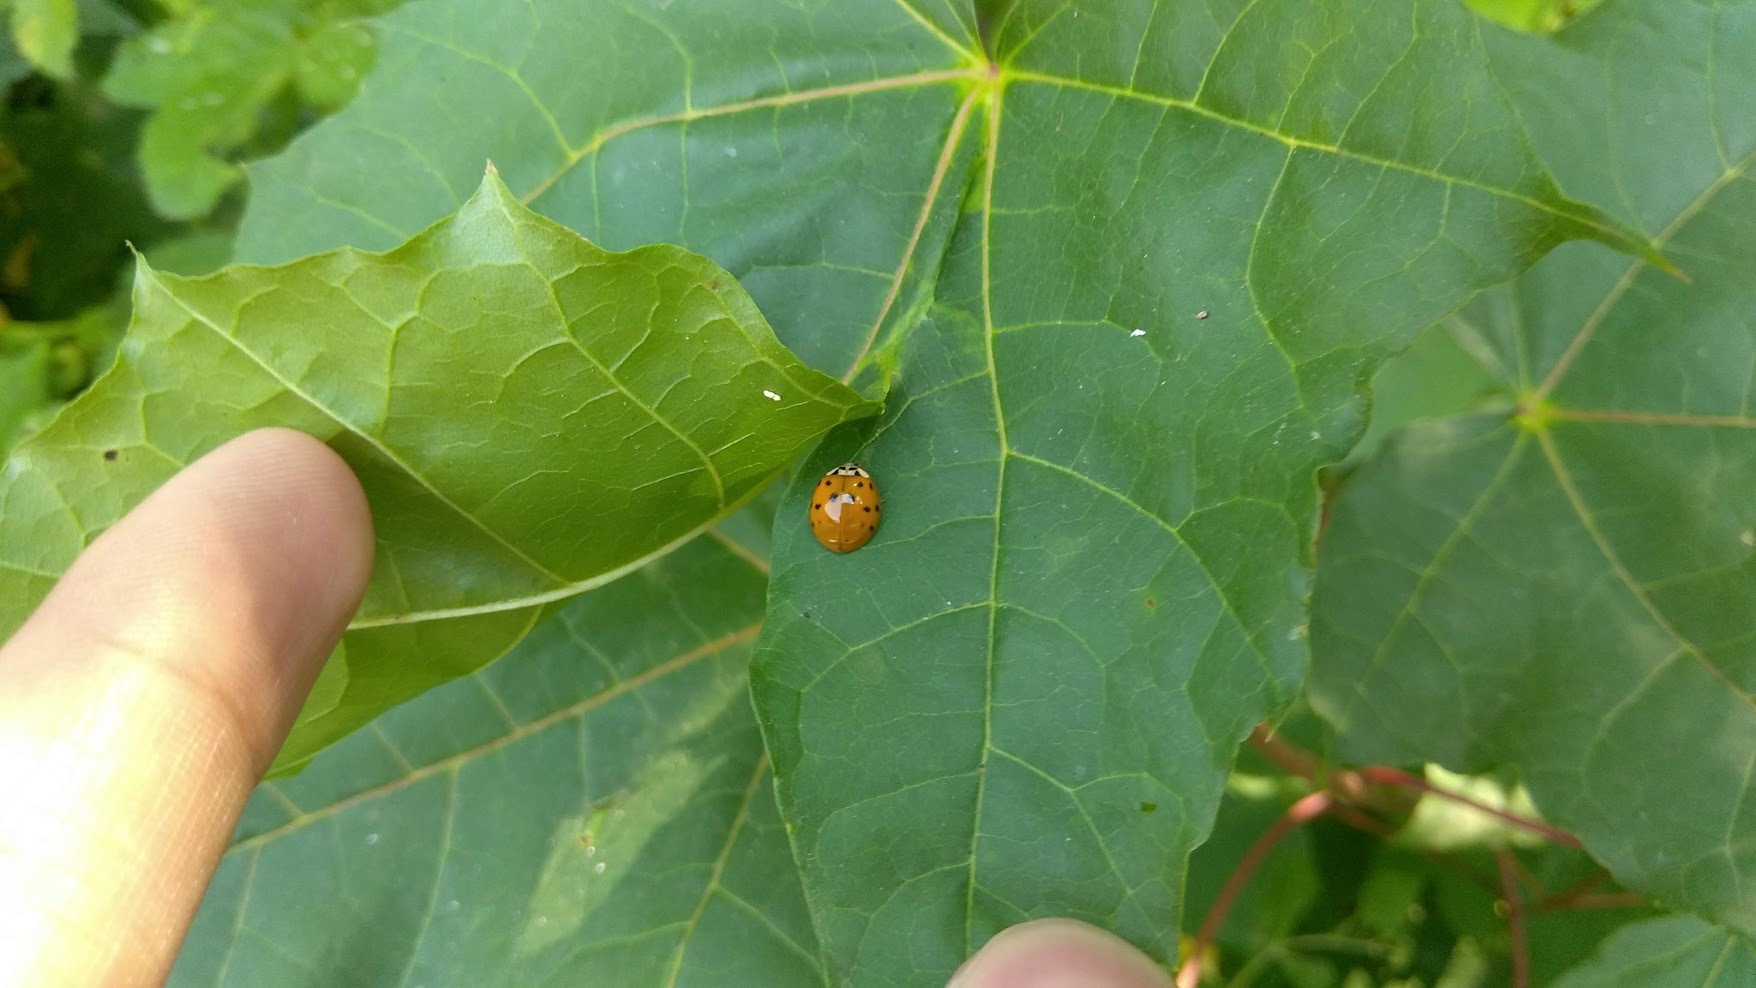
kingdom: Animalia
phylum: Arthropoda
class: Insecta
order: Coleoptera
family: Coccinellidae
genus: Harmonia
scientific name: Harmonia axyridis
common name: Harlequin ladybird
